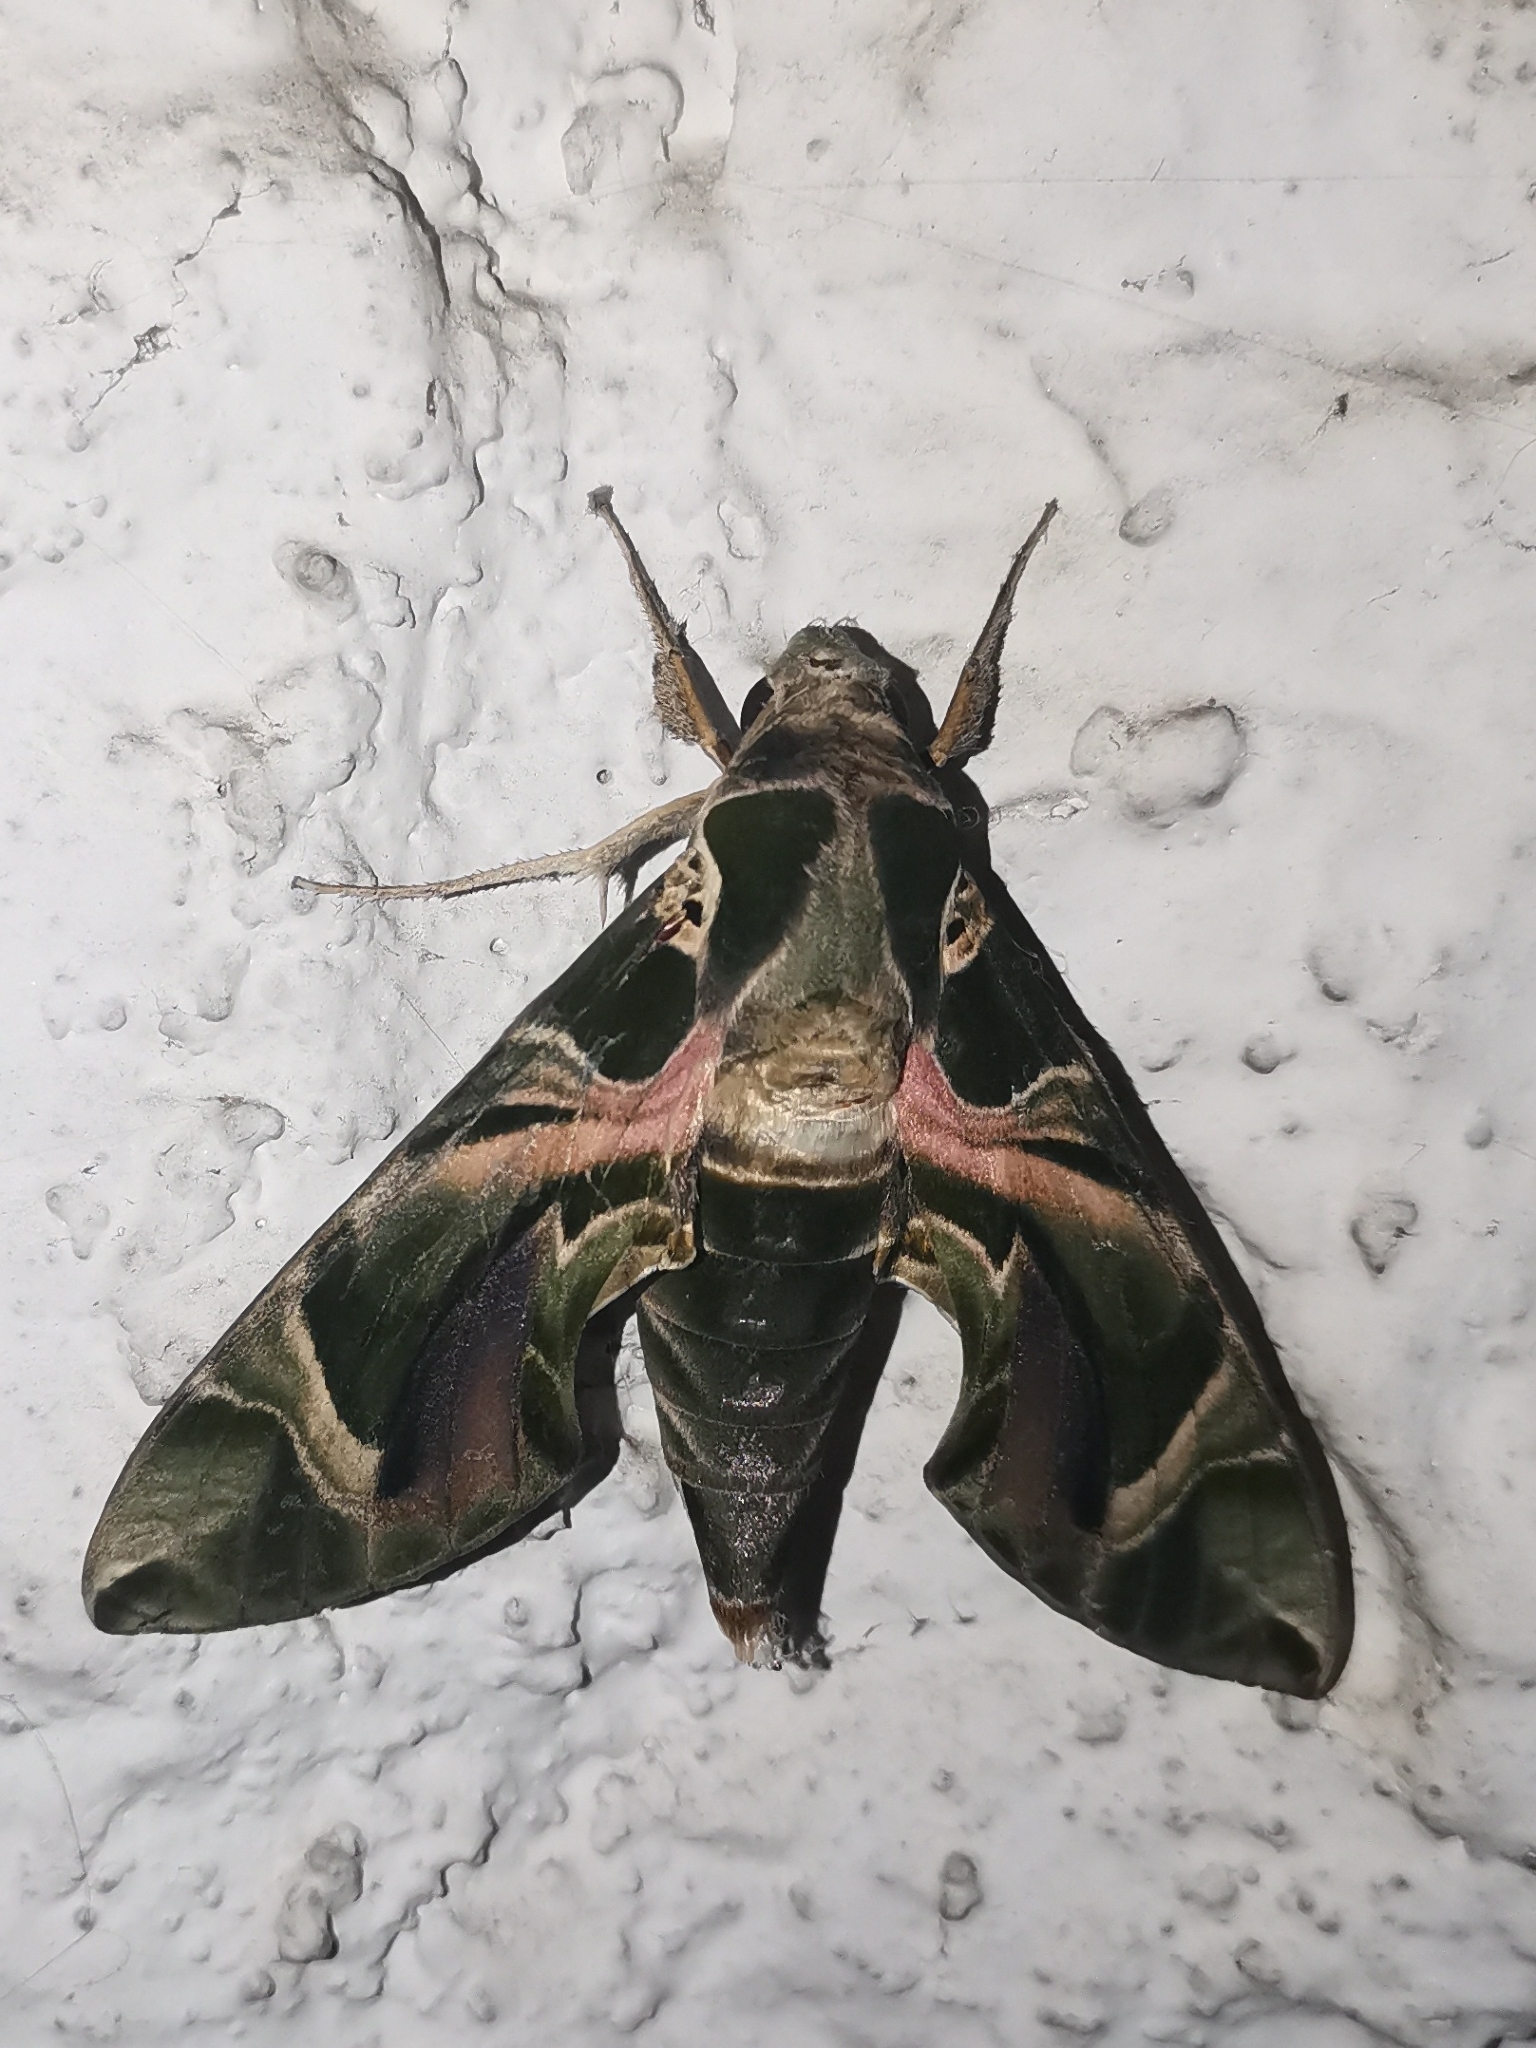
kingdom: Animalia
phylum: Arthropoda
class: Insecta
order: Lepidoptera
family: Sphingidae
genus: Daphnis
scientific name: Daphnis nerii
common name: Oleander hawk-moth
